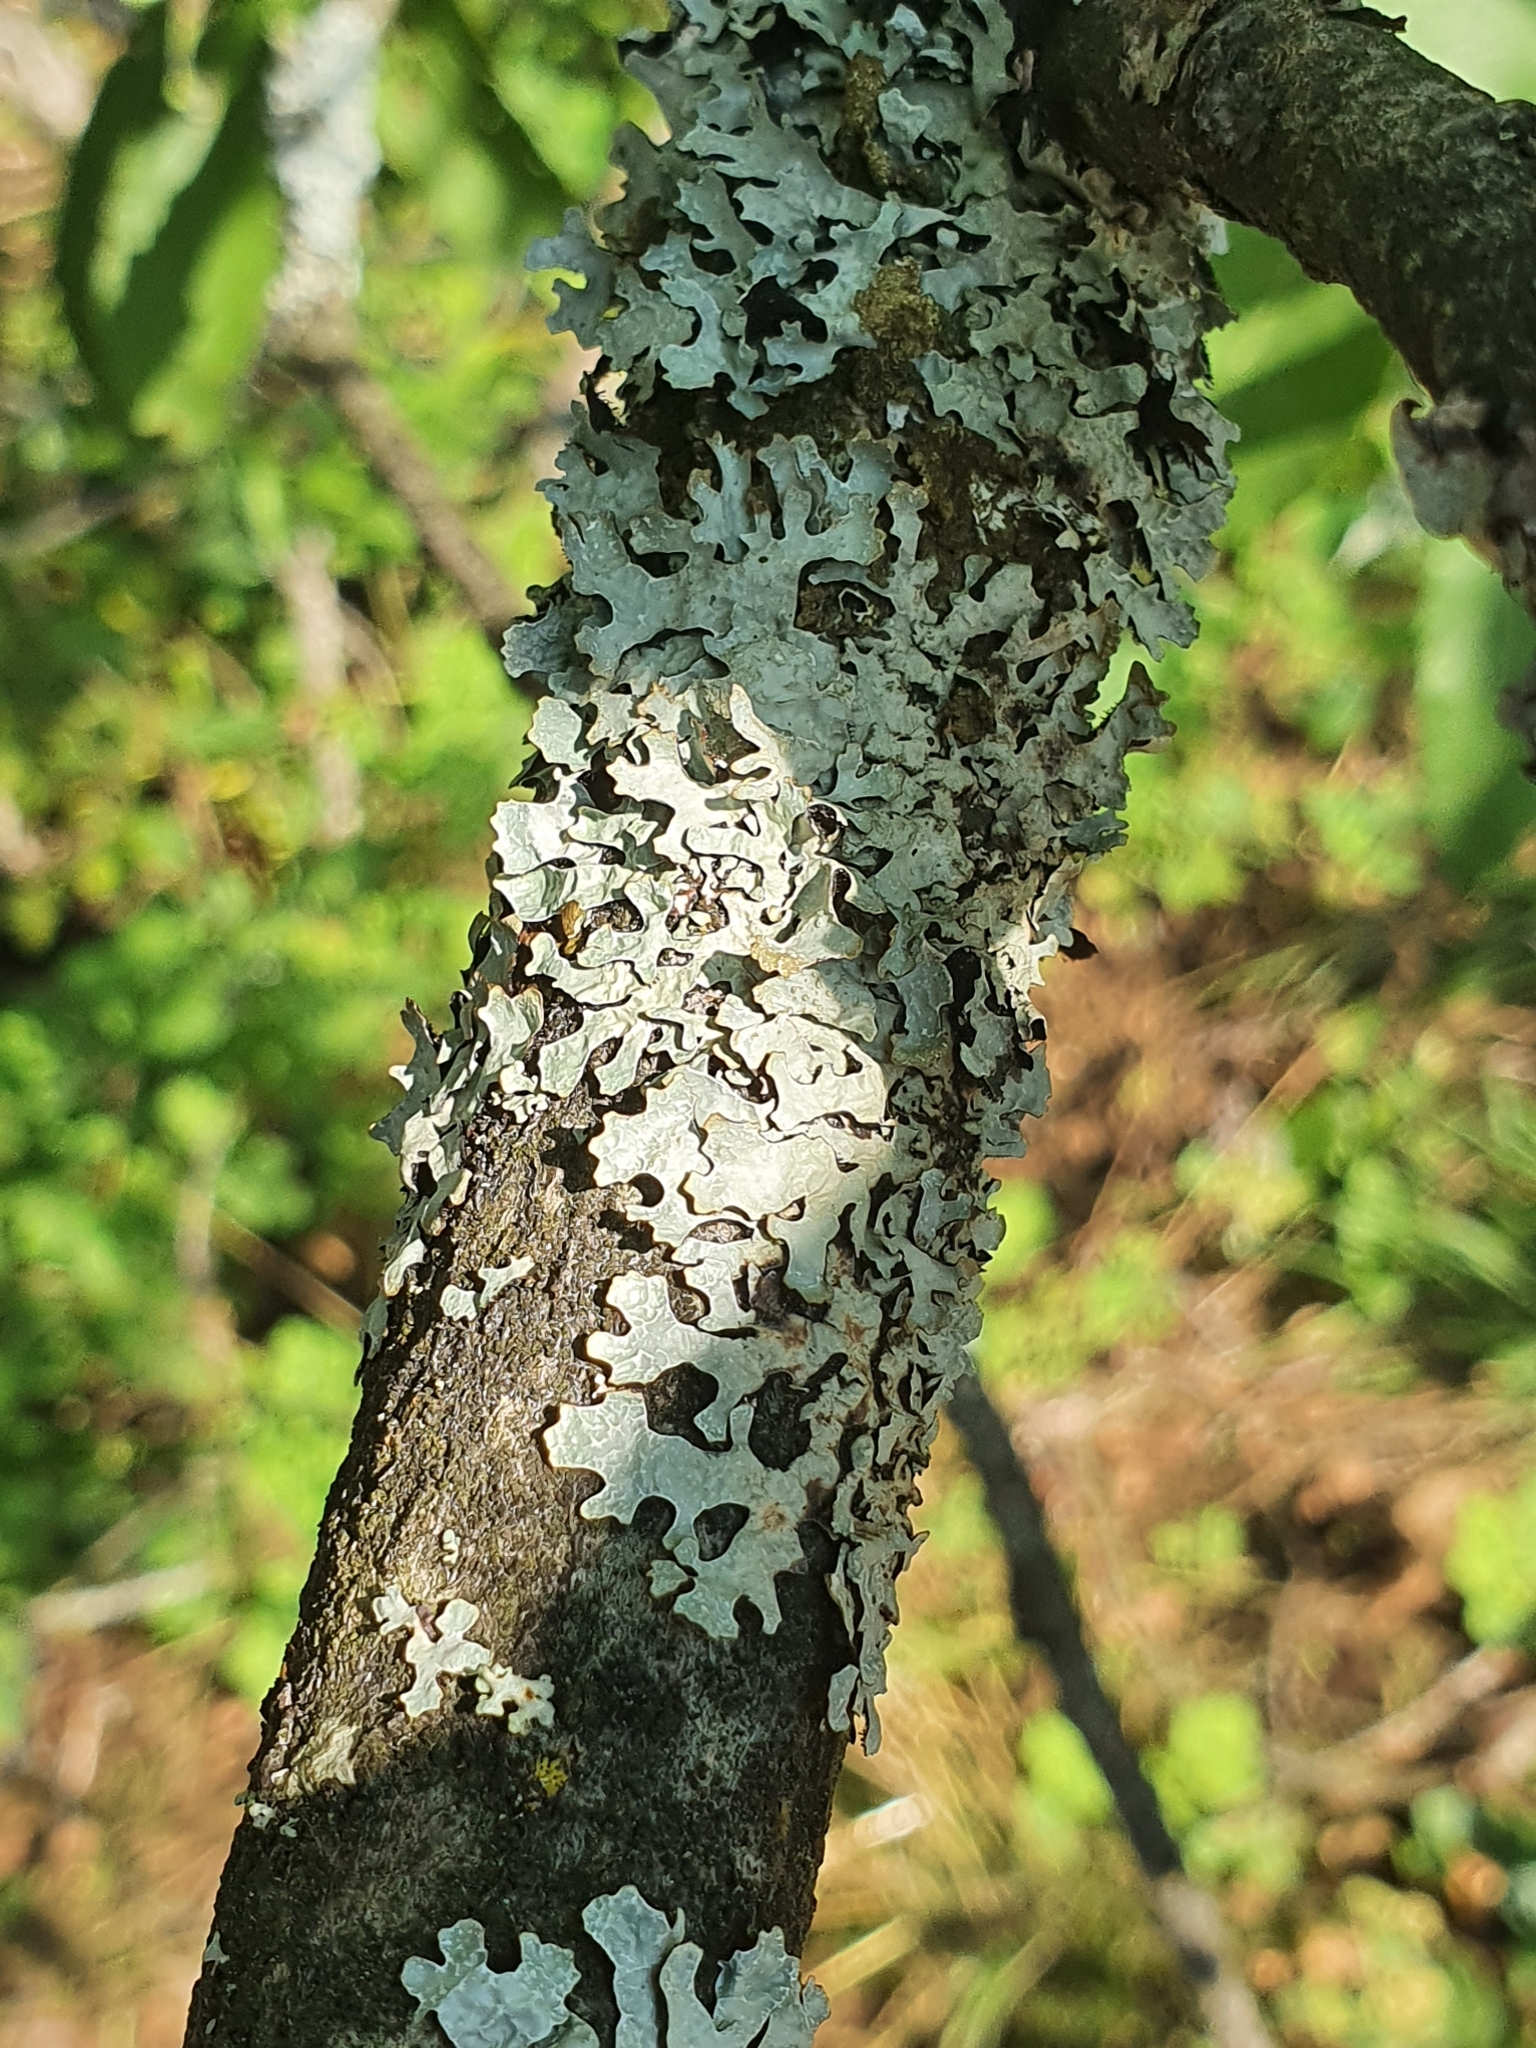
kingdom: Fungi
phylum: Ascomycota
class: Lecanoromycetes
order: Lecanorales
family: Parmeliaceae
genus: Parmelia
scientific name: Parmelia sulcata
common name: Netted shield lichen
